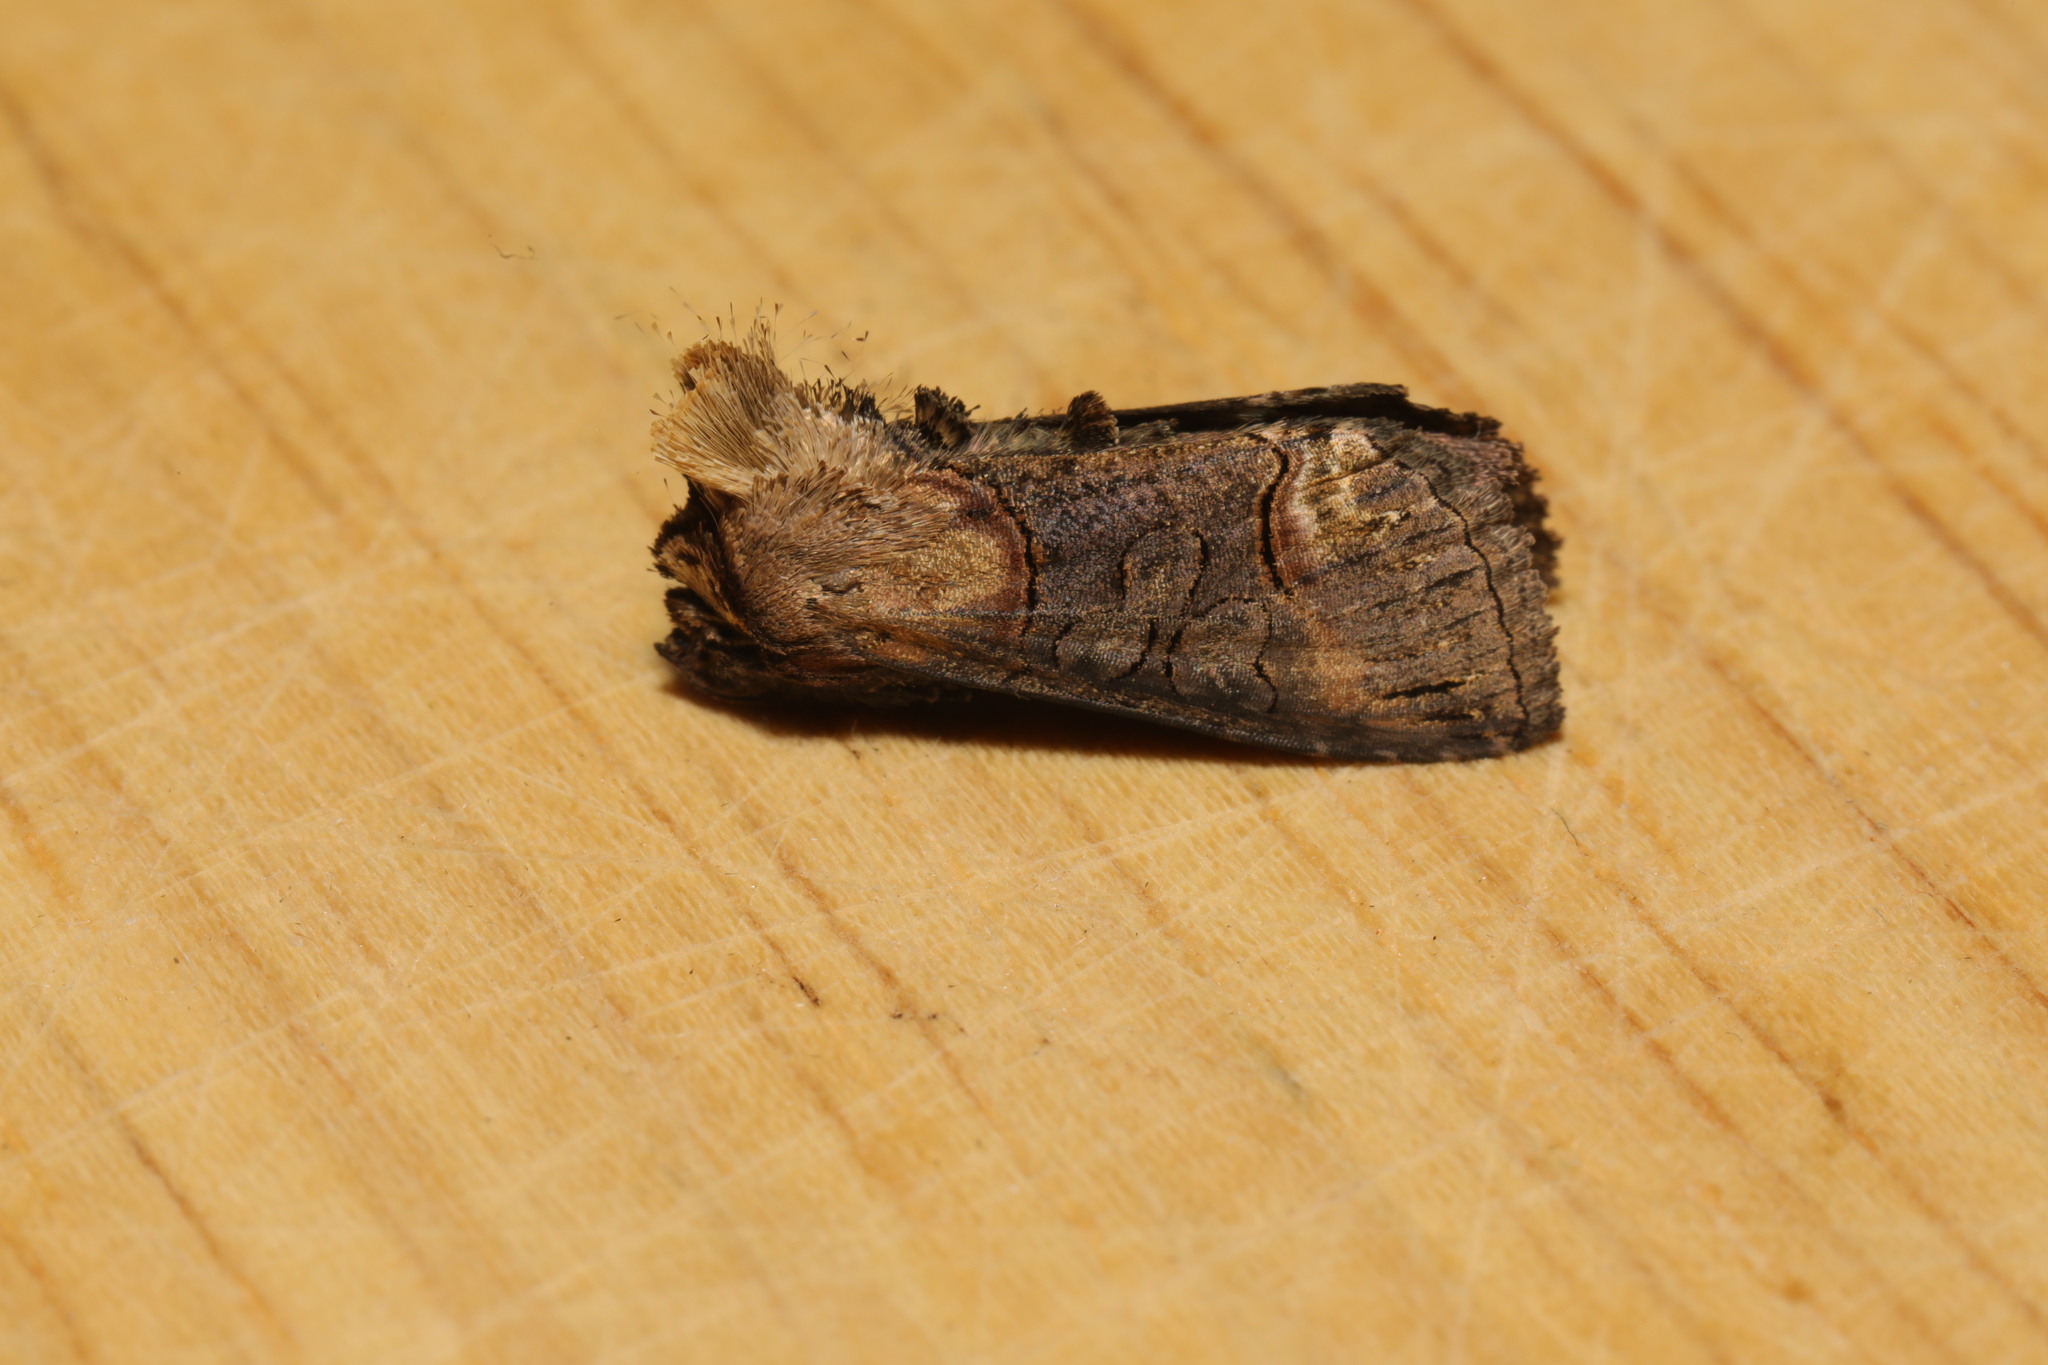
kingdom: Animalia
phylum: Arthropoda
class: Insecta
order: Lepidoptera
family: Noctuidae
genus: Abrostola
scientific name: Abrostola triplasia
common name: Dark spectacle
